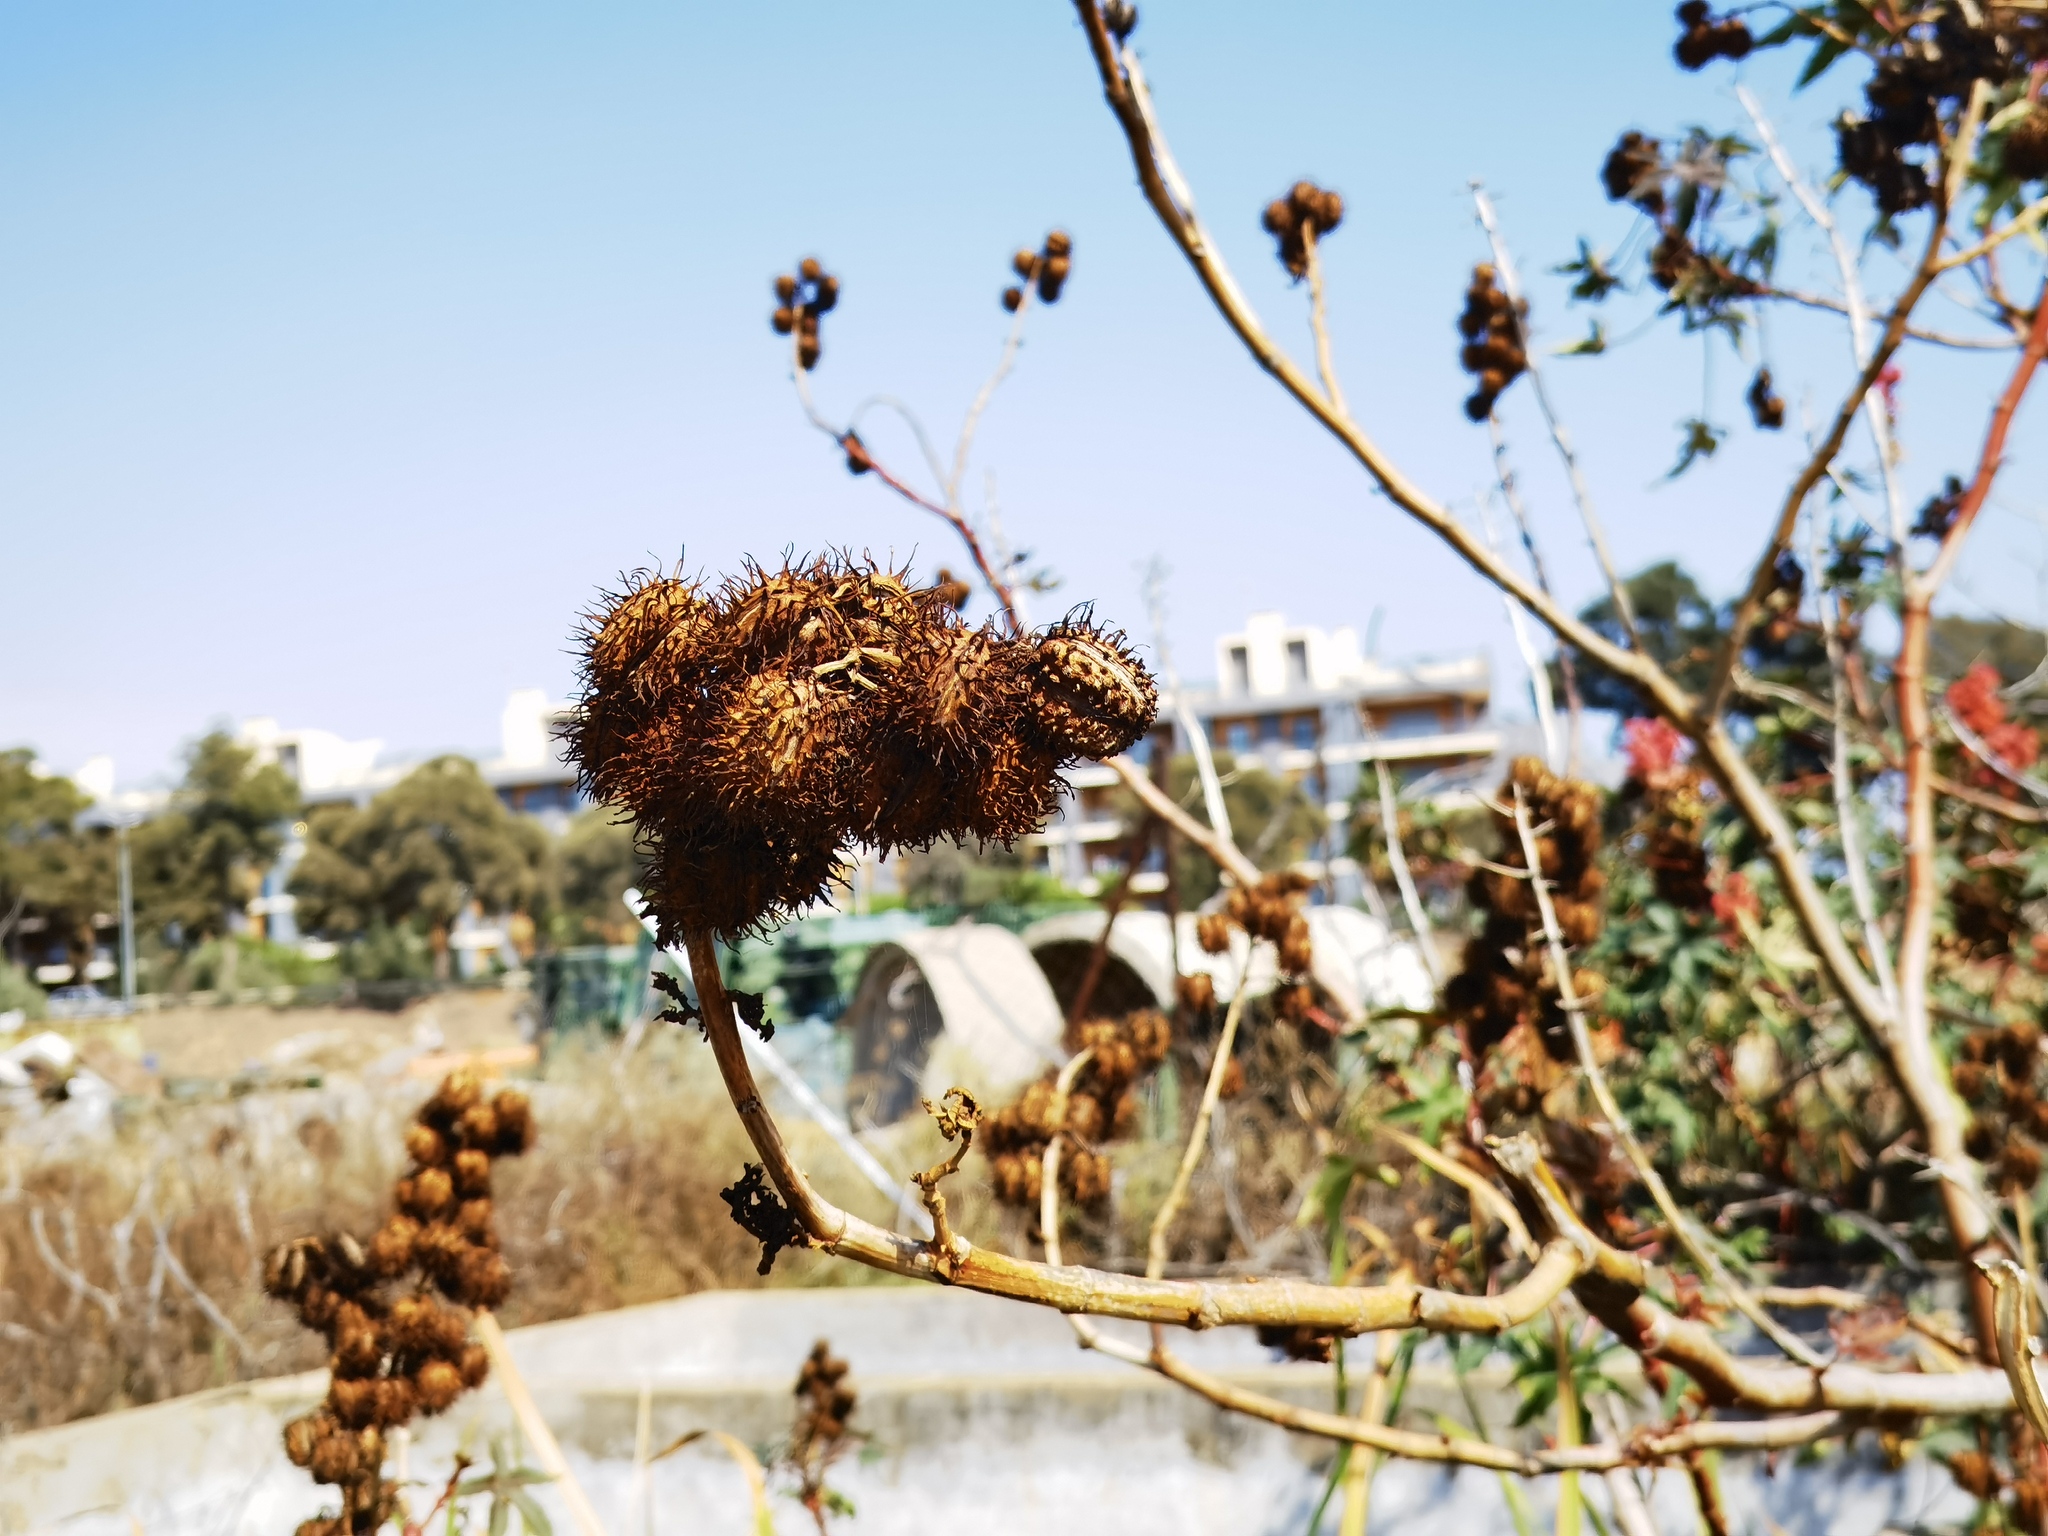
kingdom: Plantae
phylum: Tracheophyta
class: Magnoliopsida
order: Malpighiales
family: Euphorbiaceae
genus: Ricinus
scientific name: Ricinus communis
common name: Castor-oil-plant
